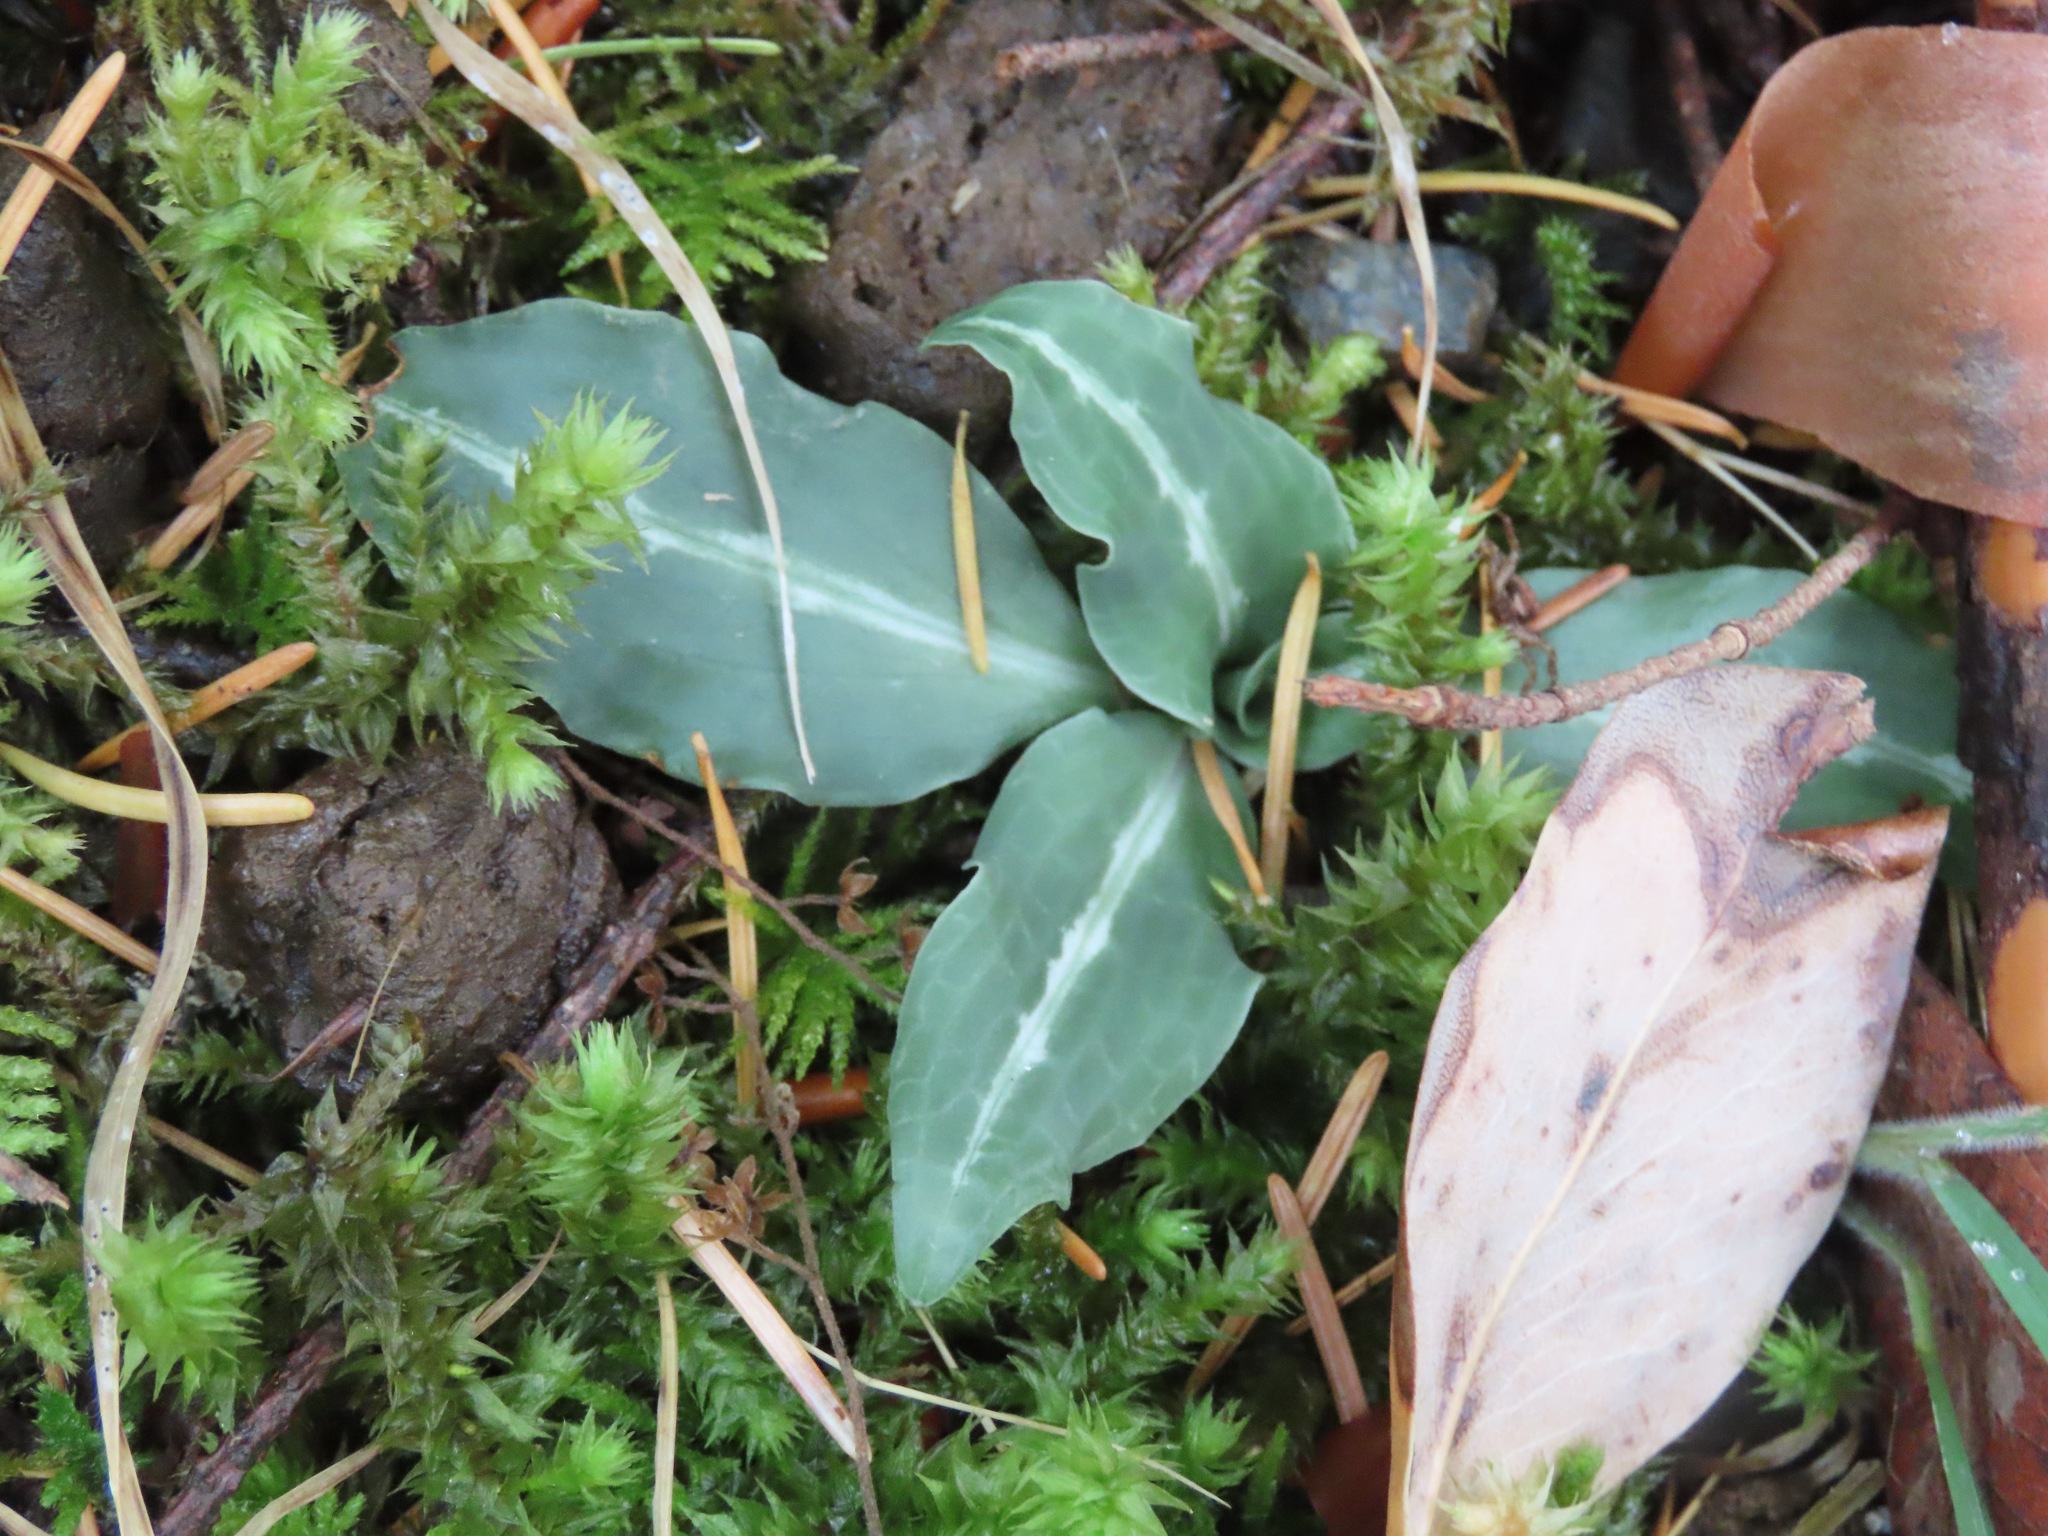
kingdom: Plantae
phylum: Tracheophyta
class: Liliopsida
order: Asparagales
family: Orchidaceae
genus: Goodyera
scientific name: Goodyera oblongifolia
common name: Giant rattlesnake-plantain
